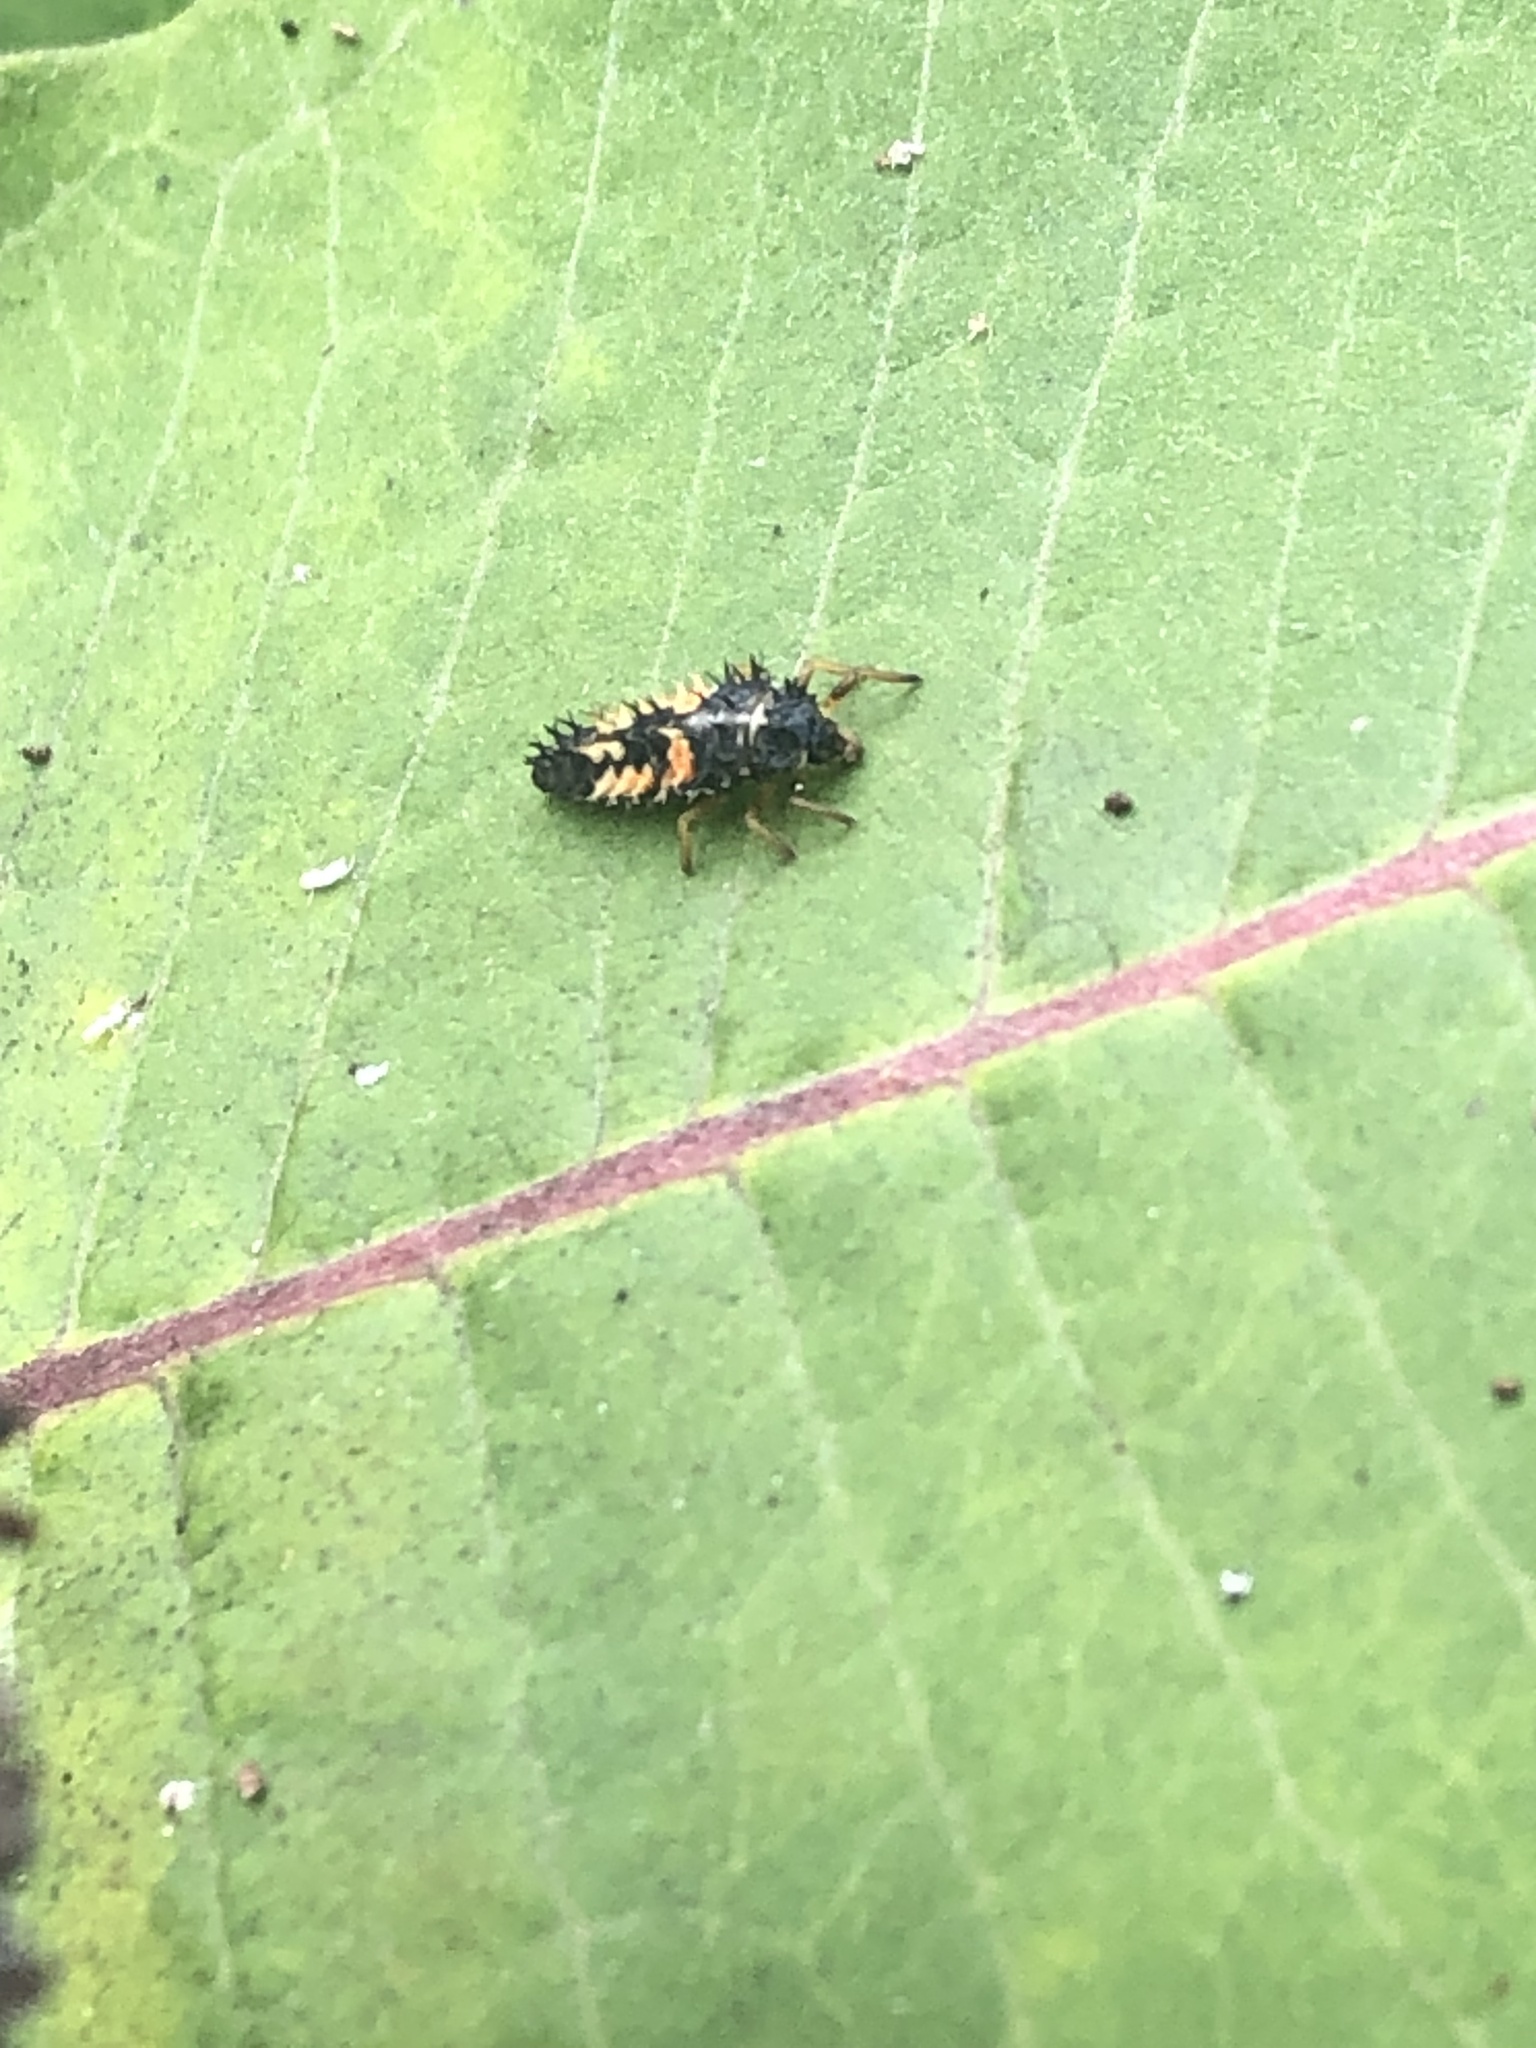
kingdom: Animalia
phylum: Arthropoda
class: Insecta
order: Coleoptera
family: Coccinellidae
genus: Harmonia
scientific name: Harmonia axyridis
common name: Harlequin ladybird
